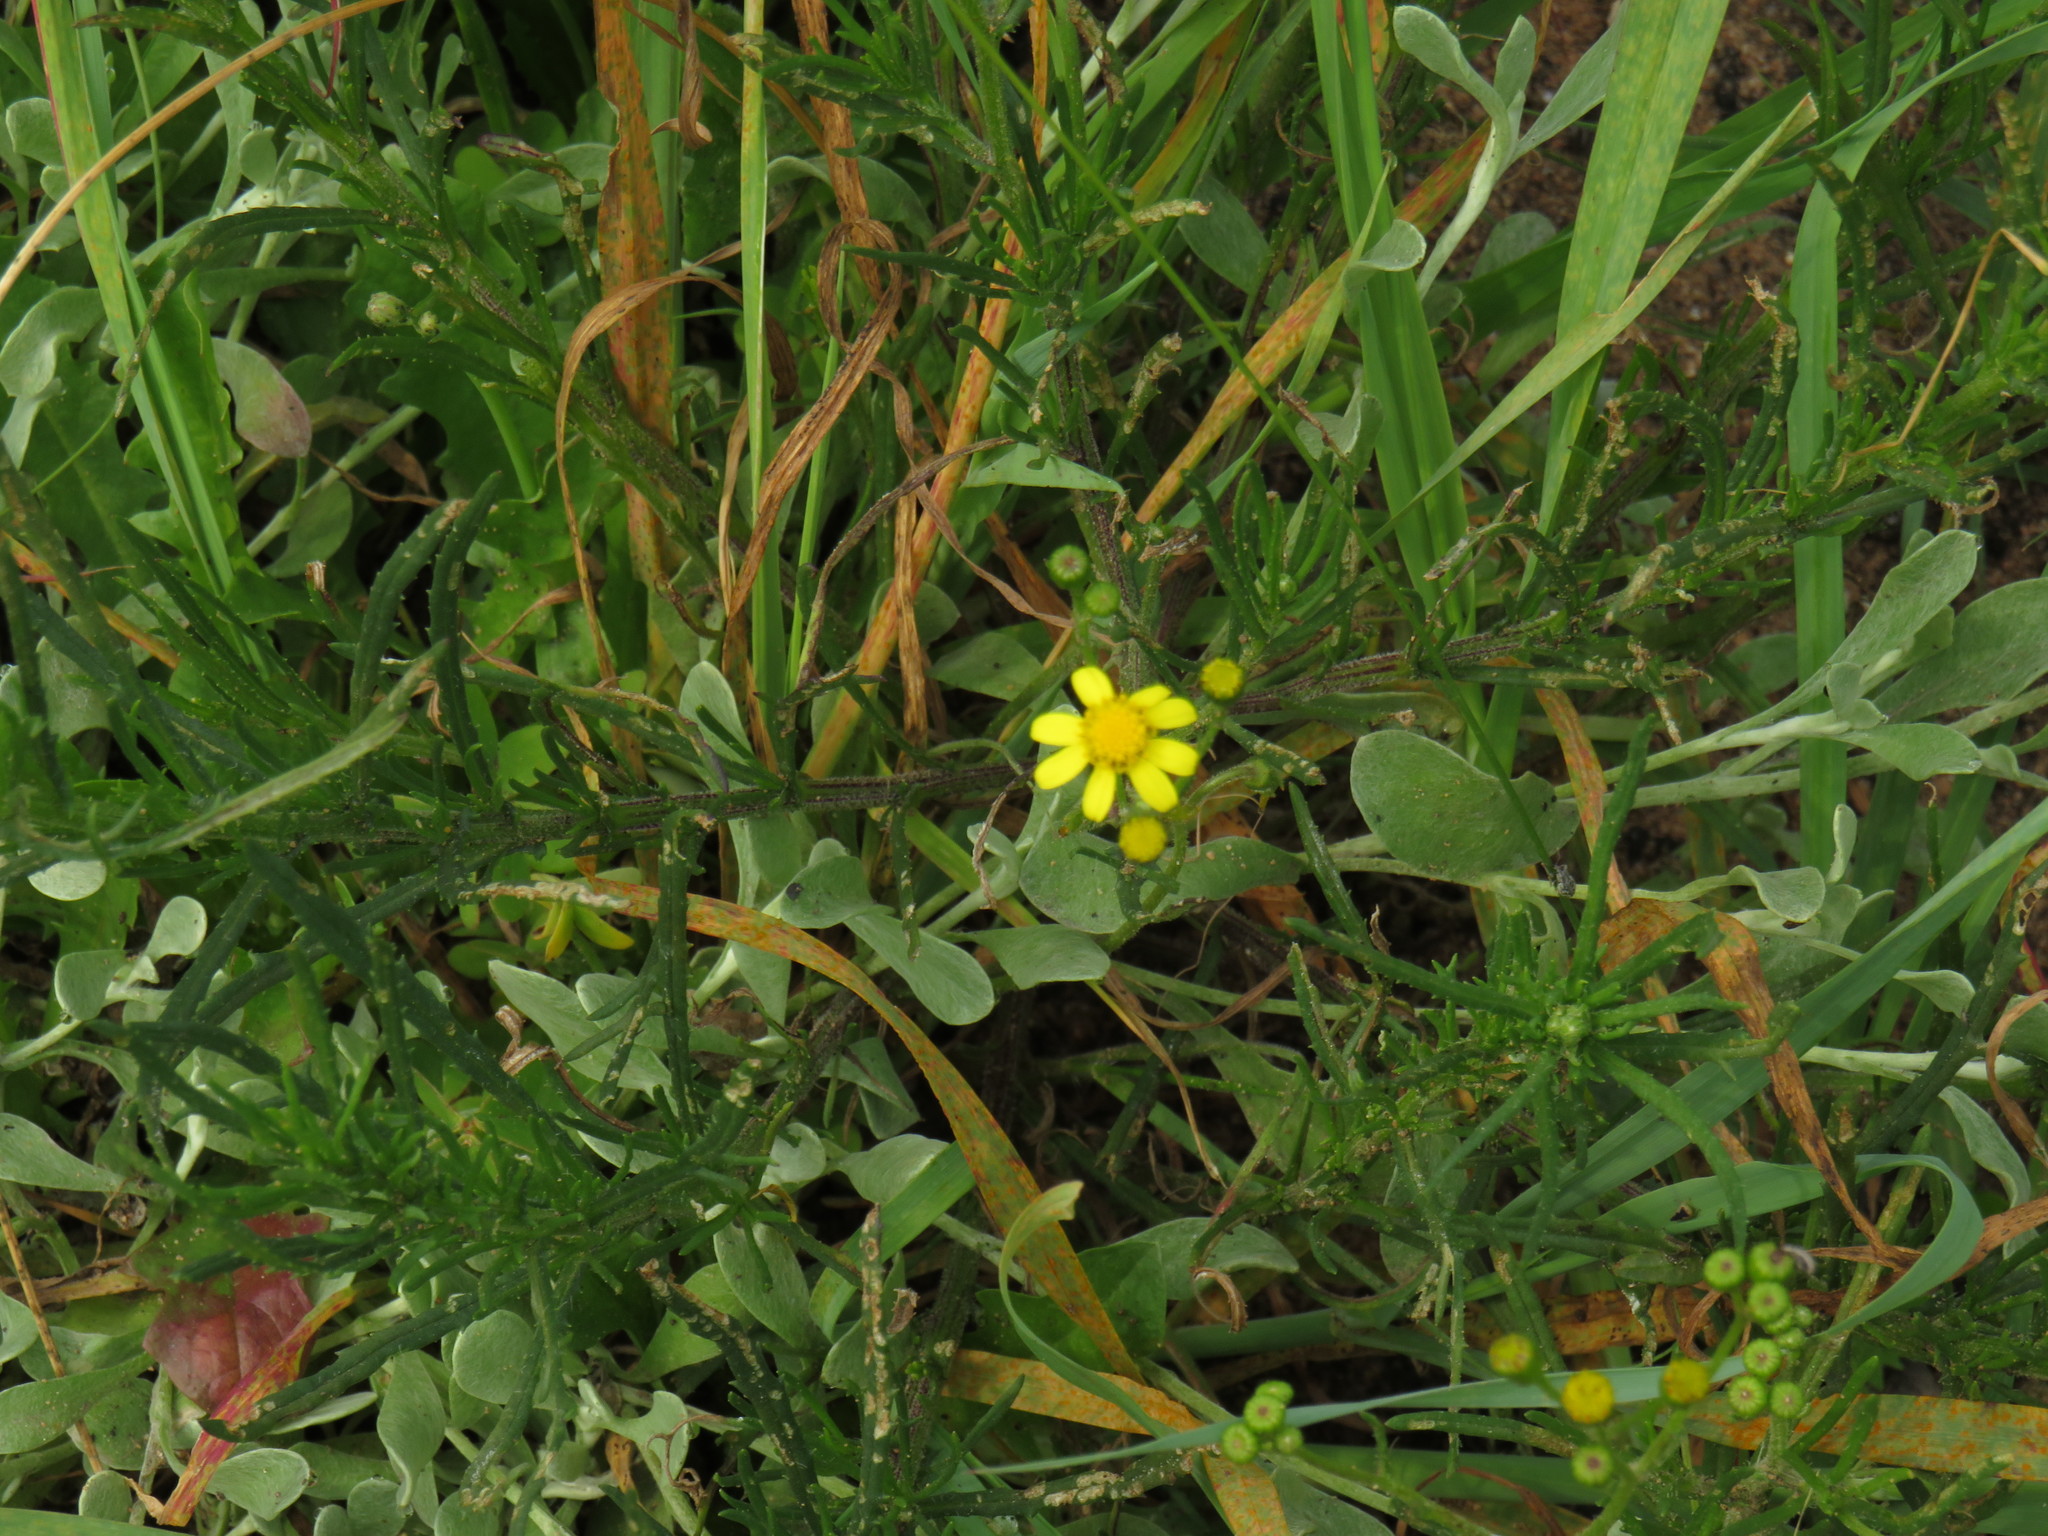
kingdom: Plantae
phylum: Tracheophyta
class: Magnoliopsida
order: Asterales
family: Asteraceae
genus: Senecio
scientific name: Senecio burchellii
